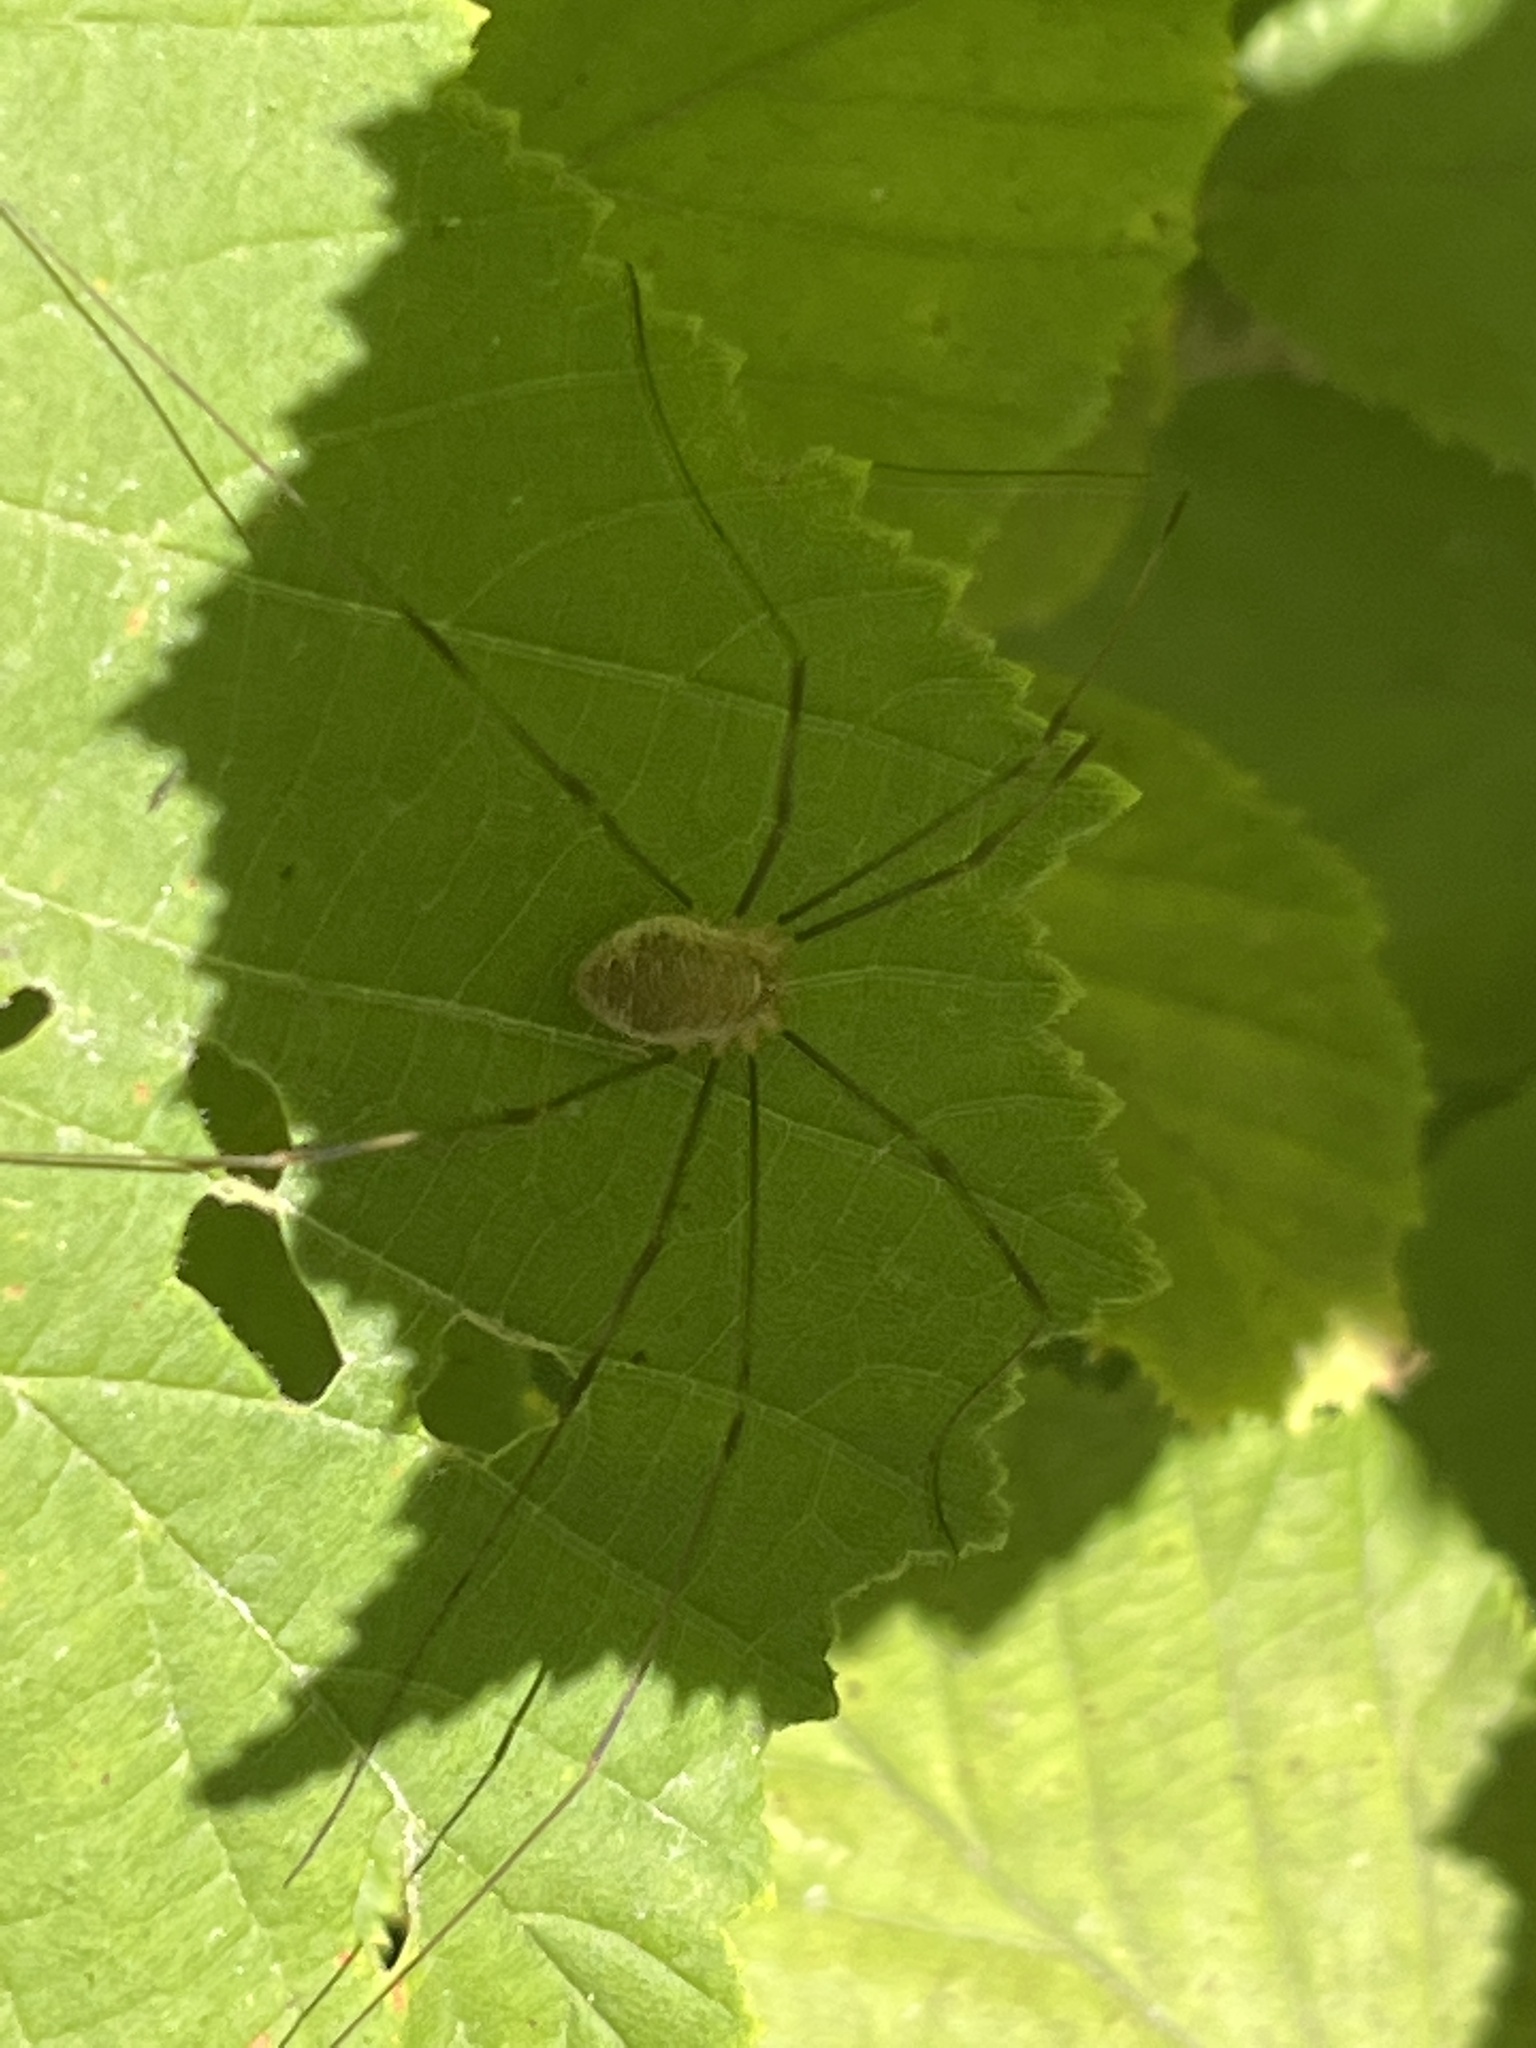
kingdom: Animalia
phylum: Arthropoda
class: Arachnida
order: Opiliones
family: Phalangiidae
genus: Opilio
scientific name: Opilio canestrinii
